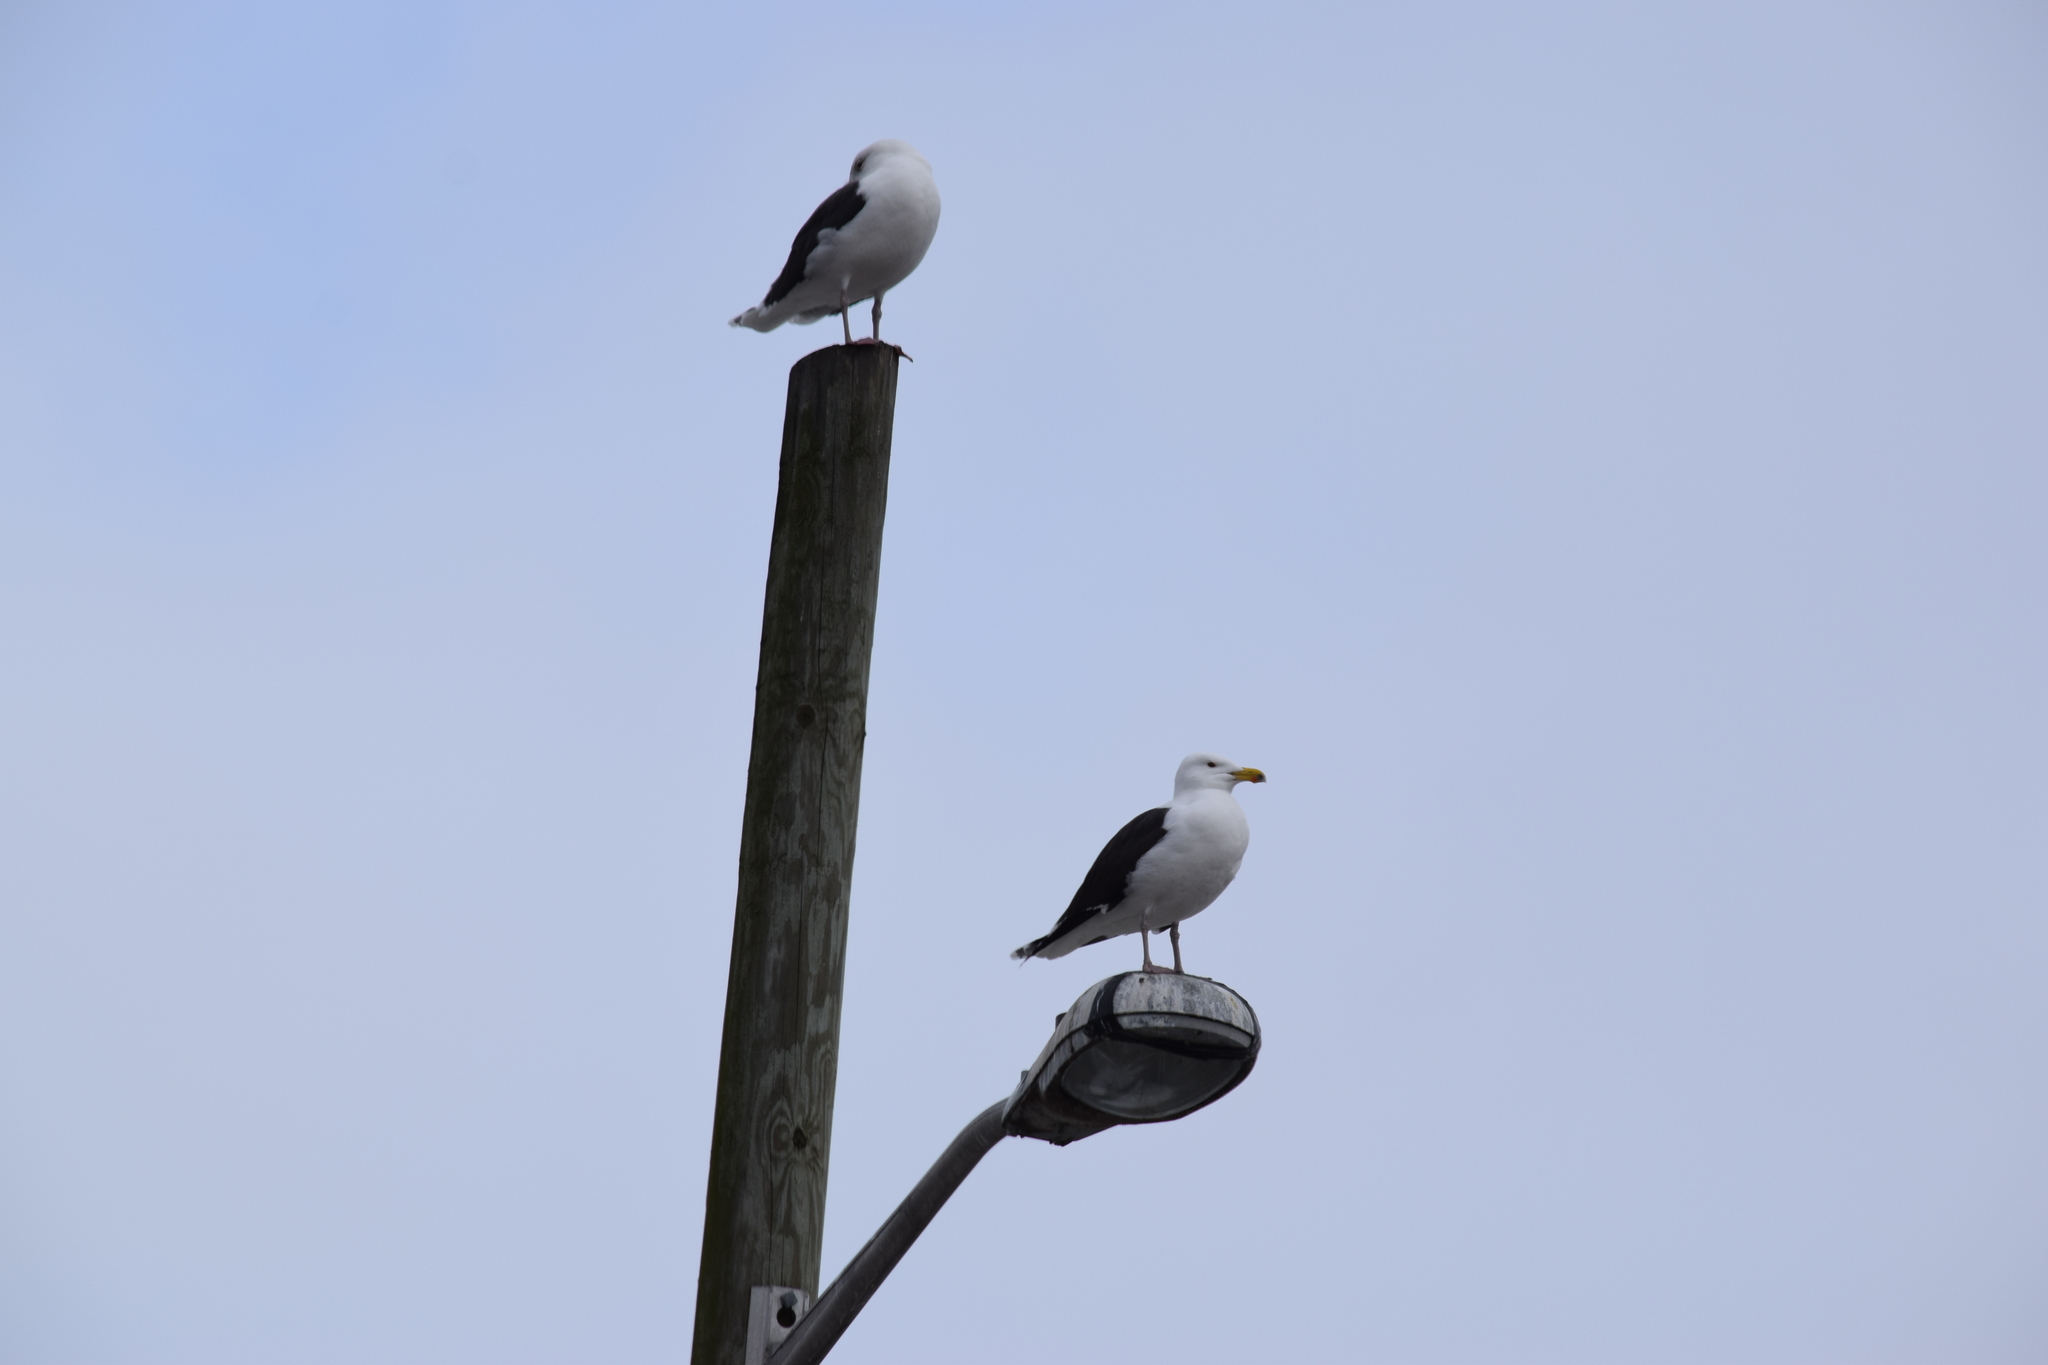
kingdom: Animalia
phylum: Chordata
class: Aves
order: Charadriiformes
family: Laridae
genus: Larus
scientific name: Larus marinus
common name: Great black-backed gull
